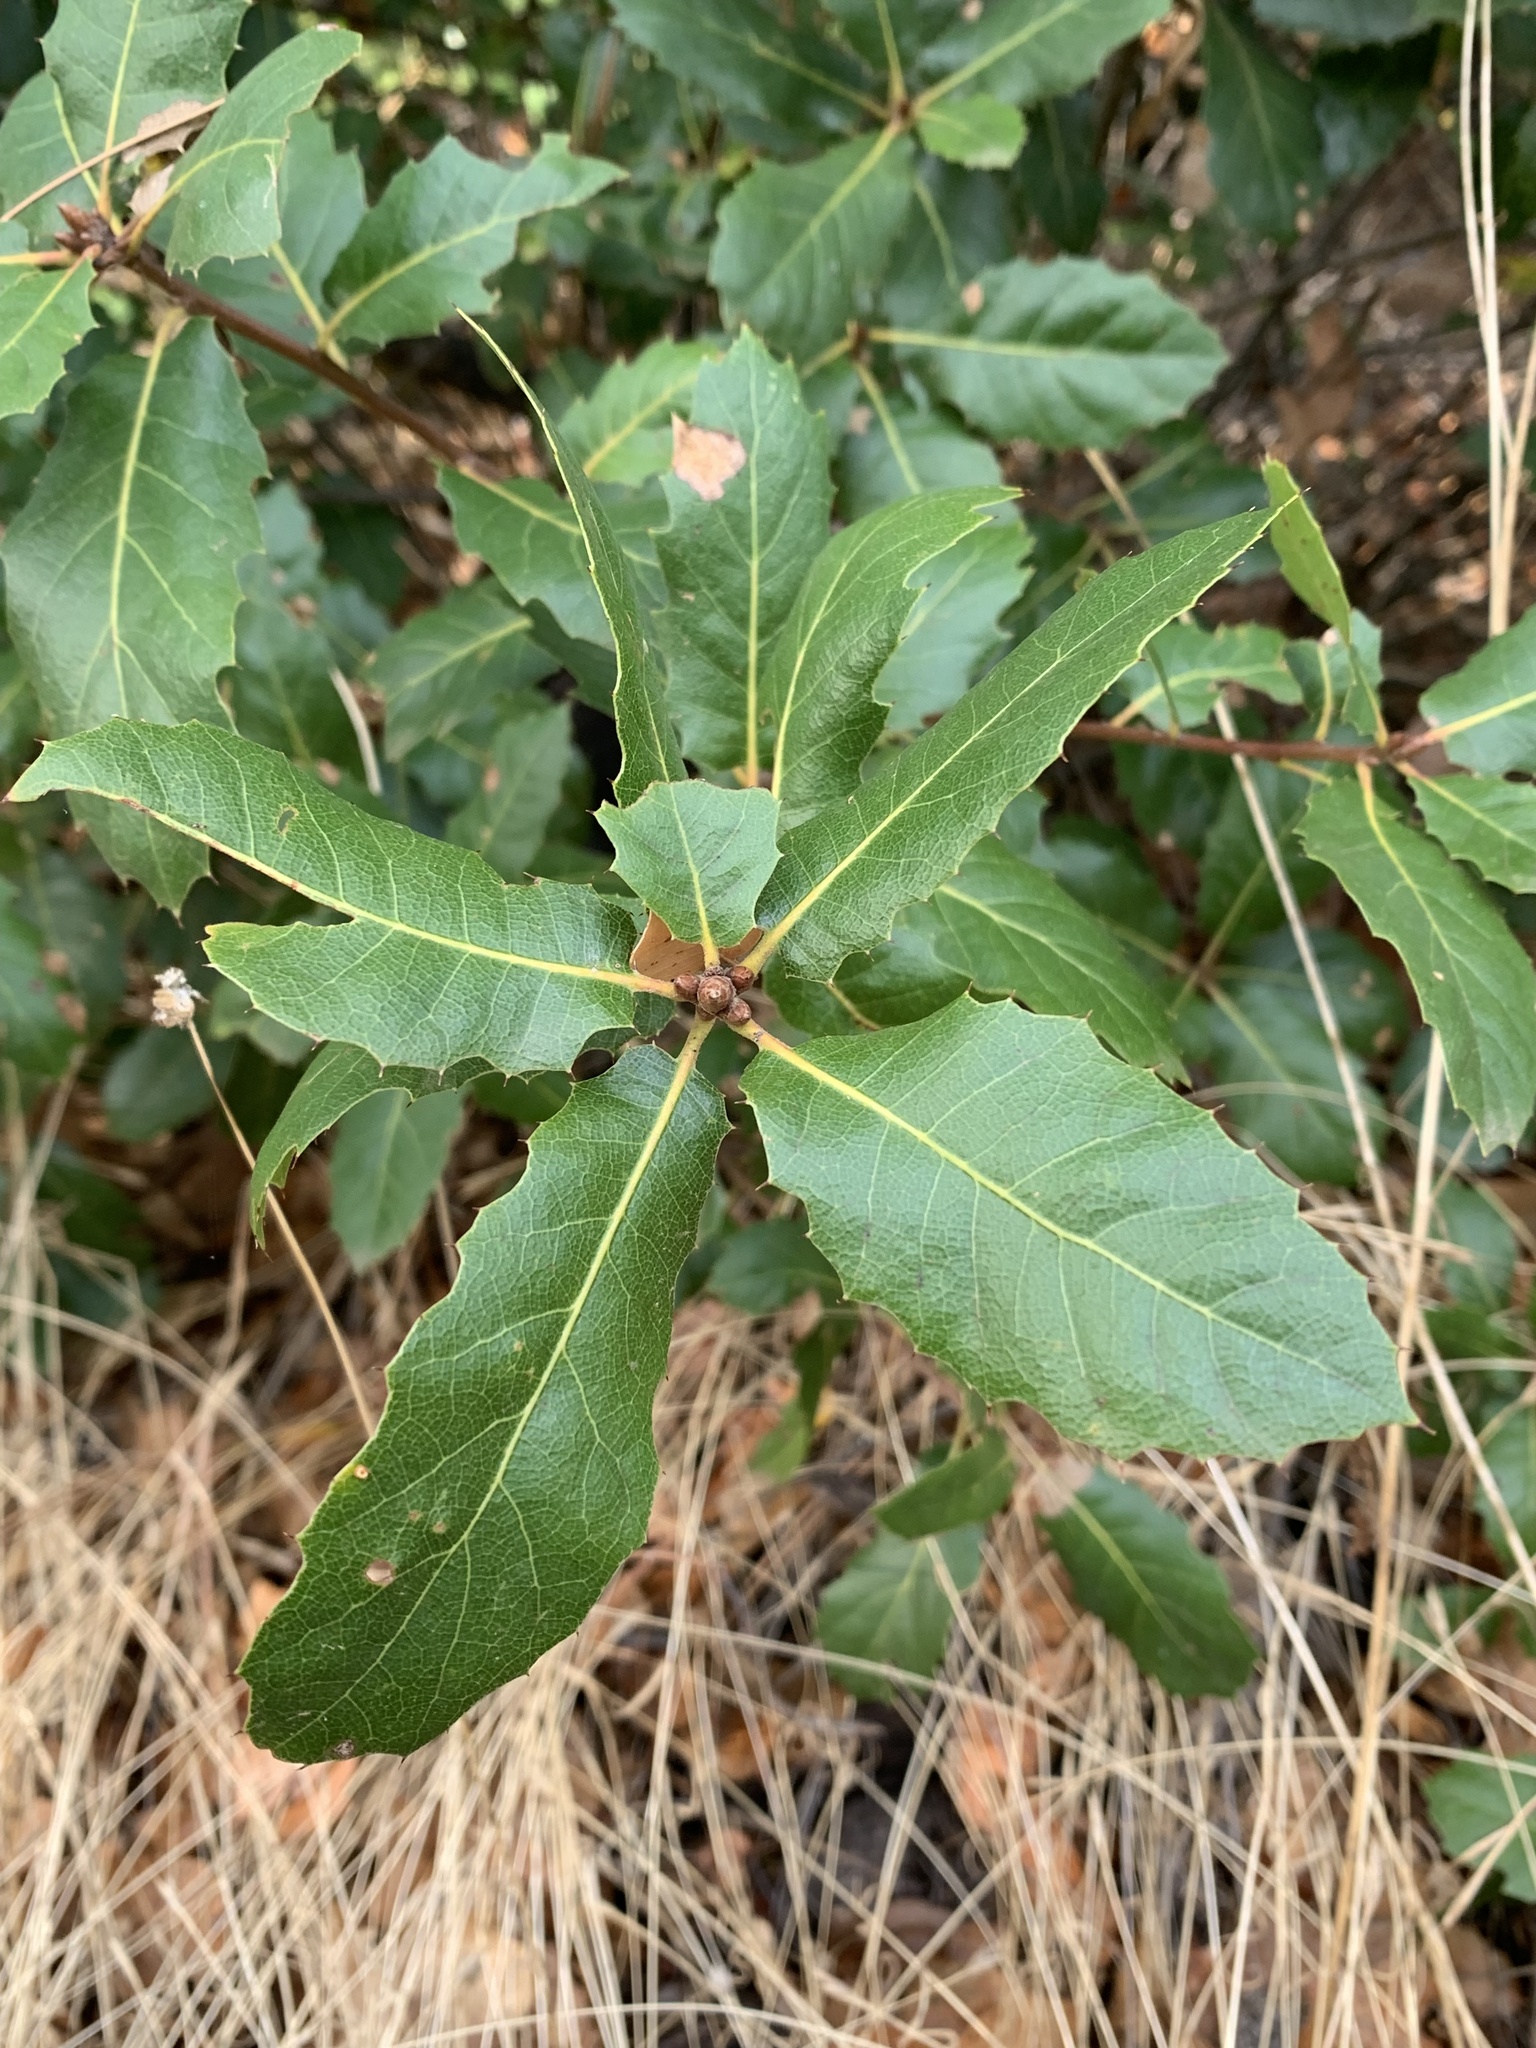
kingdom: Plantae
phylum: Tracheophyta
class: Magnoliopsida
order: Fagales
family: Fagaceae
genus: Quercus
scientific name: Quercus morehus
